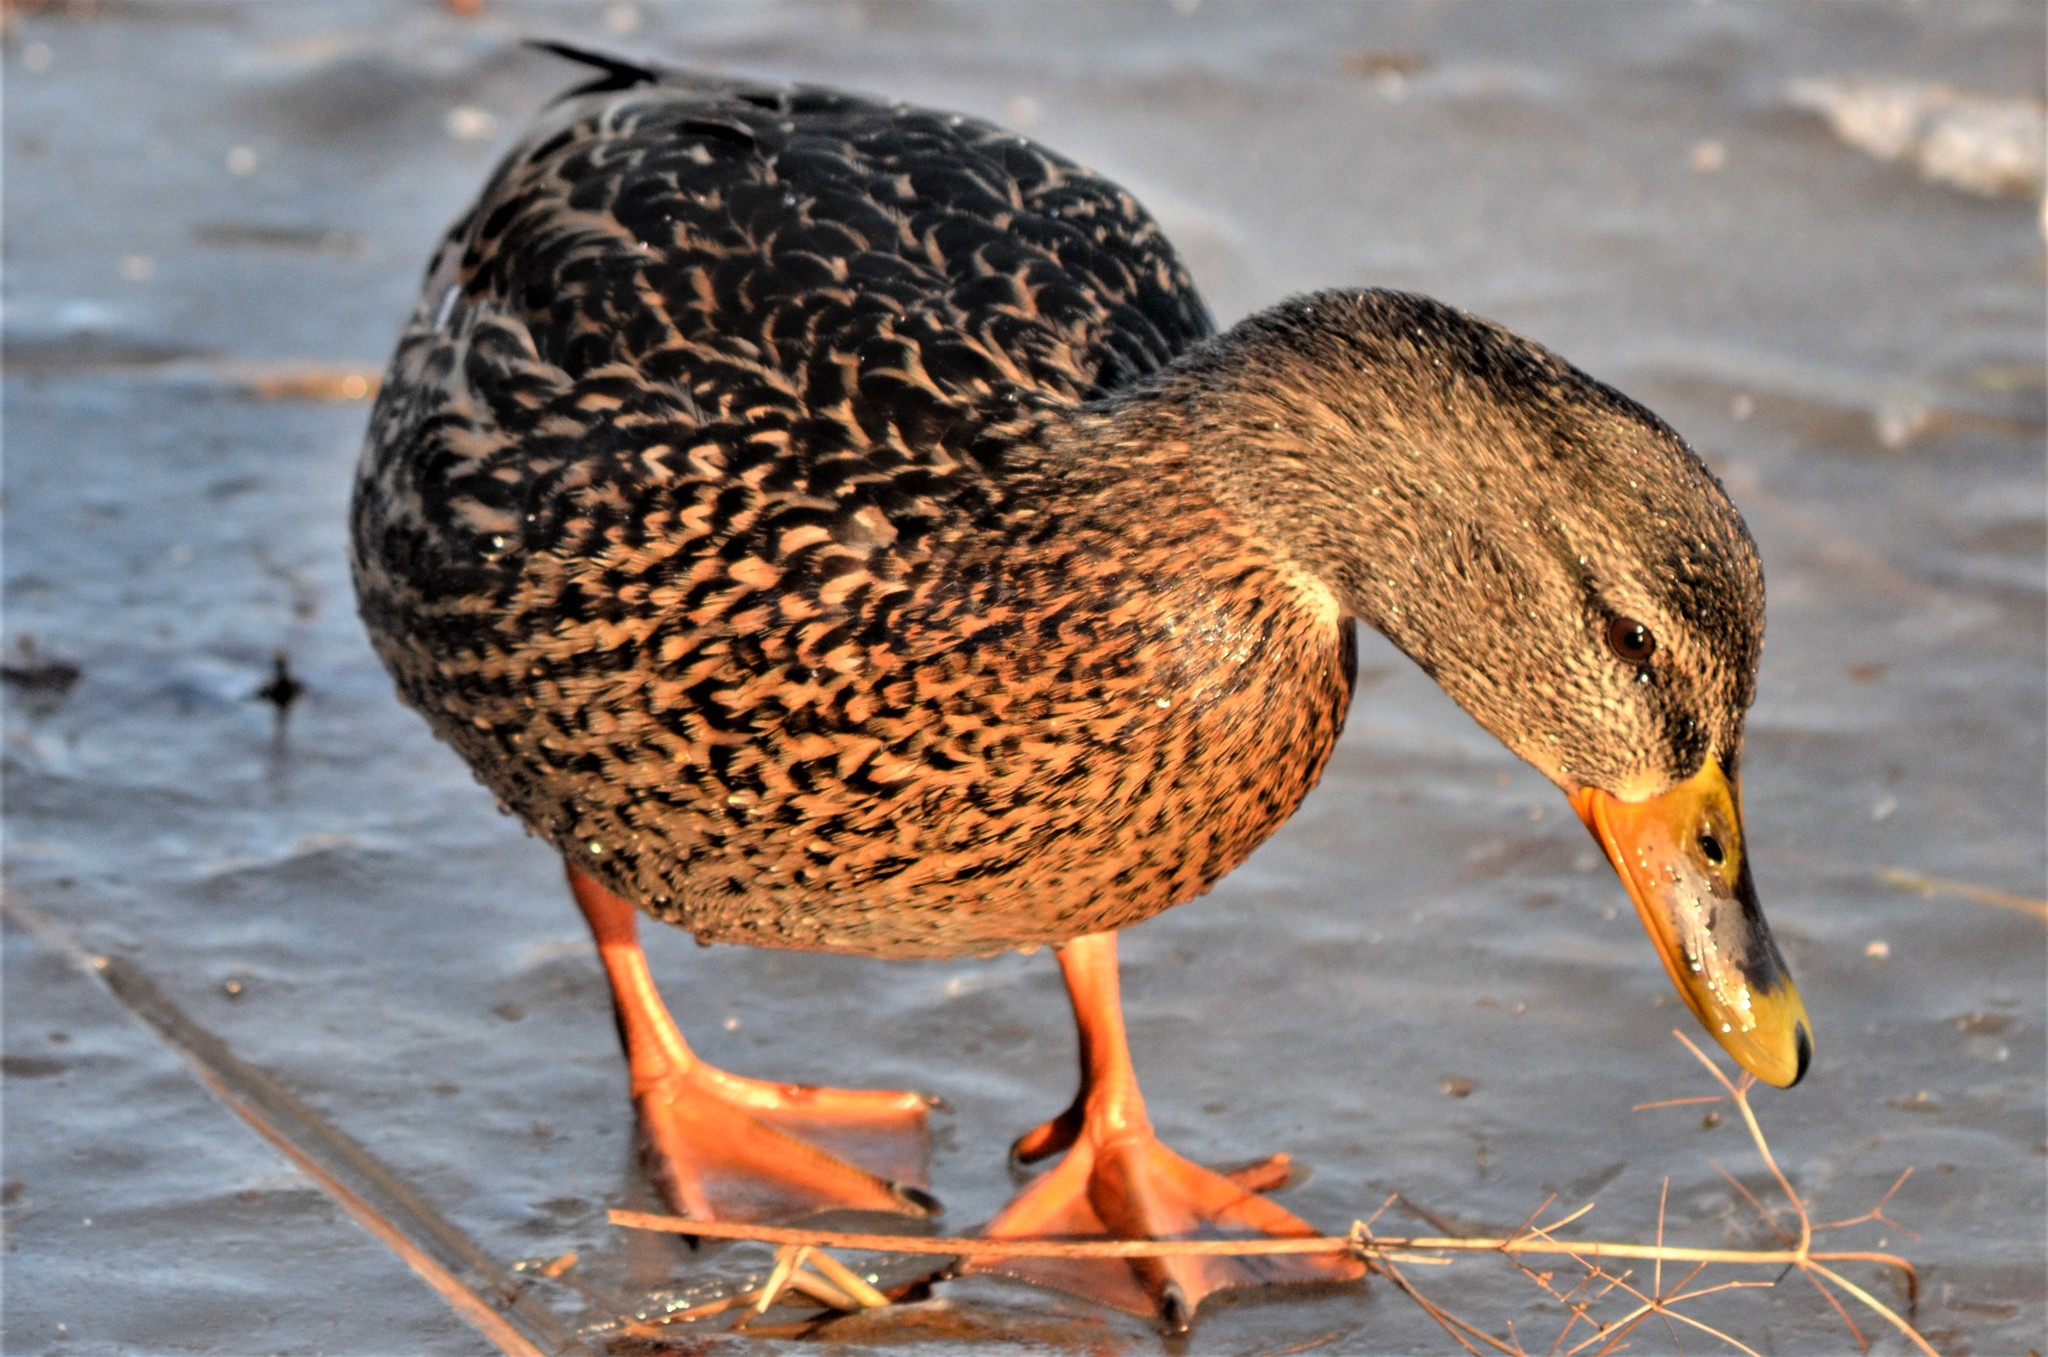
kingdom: Animalia
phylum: Chordata
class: Aves
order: Anseriformes
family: Anatidae
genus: Anas
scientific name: Anas platyrhynchos
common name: Mallard
